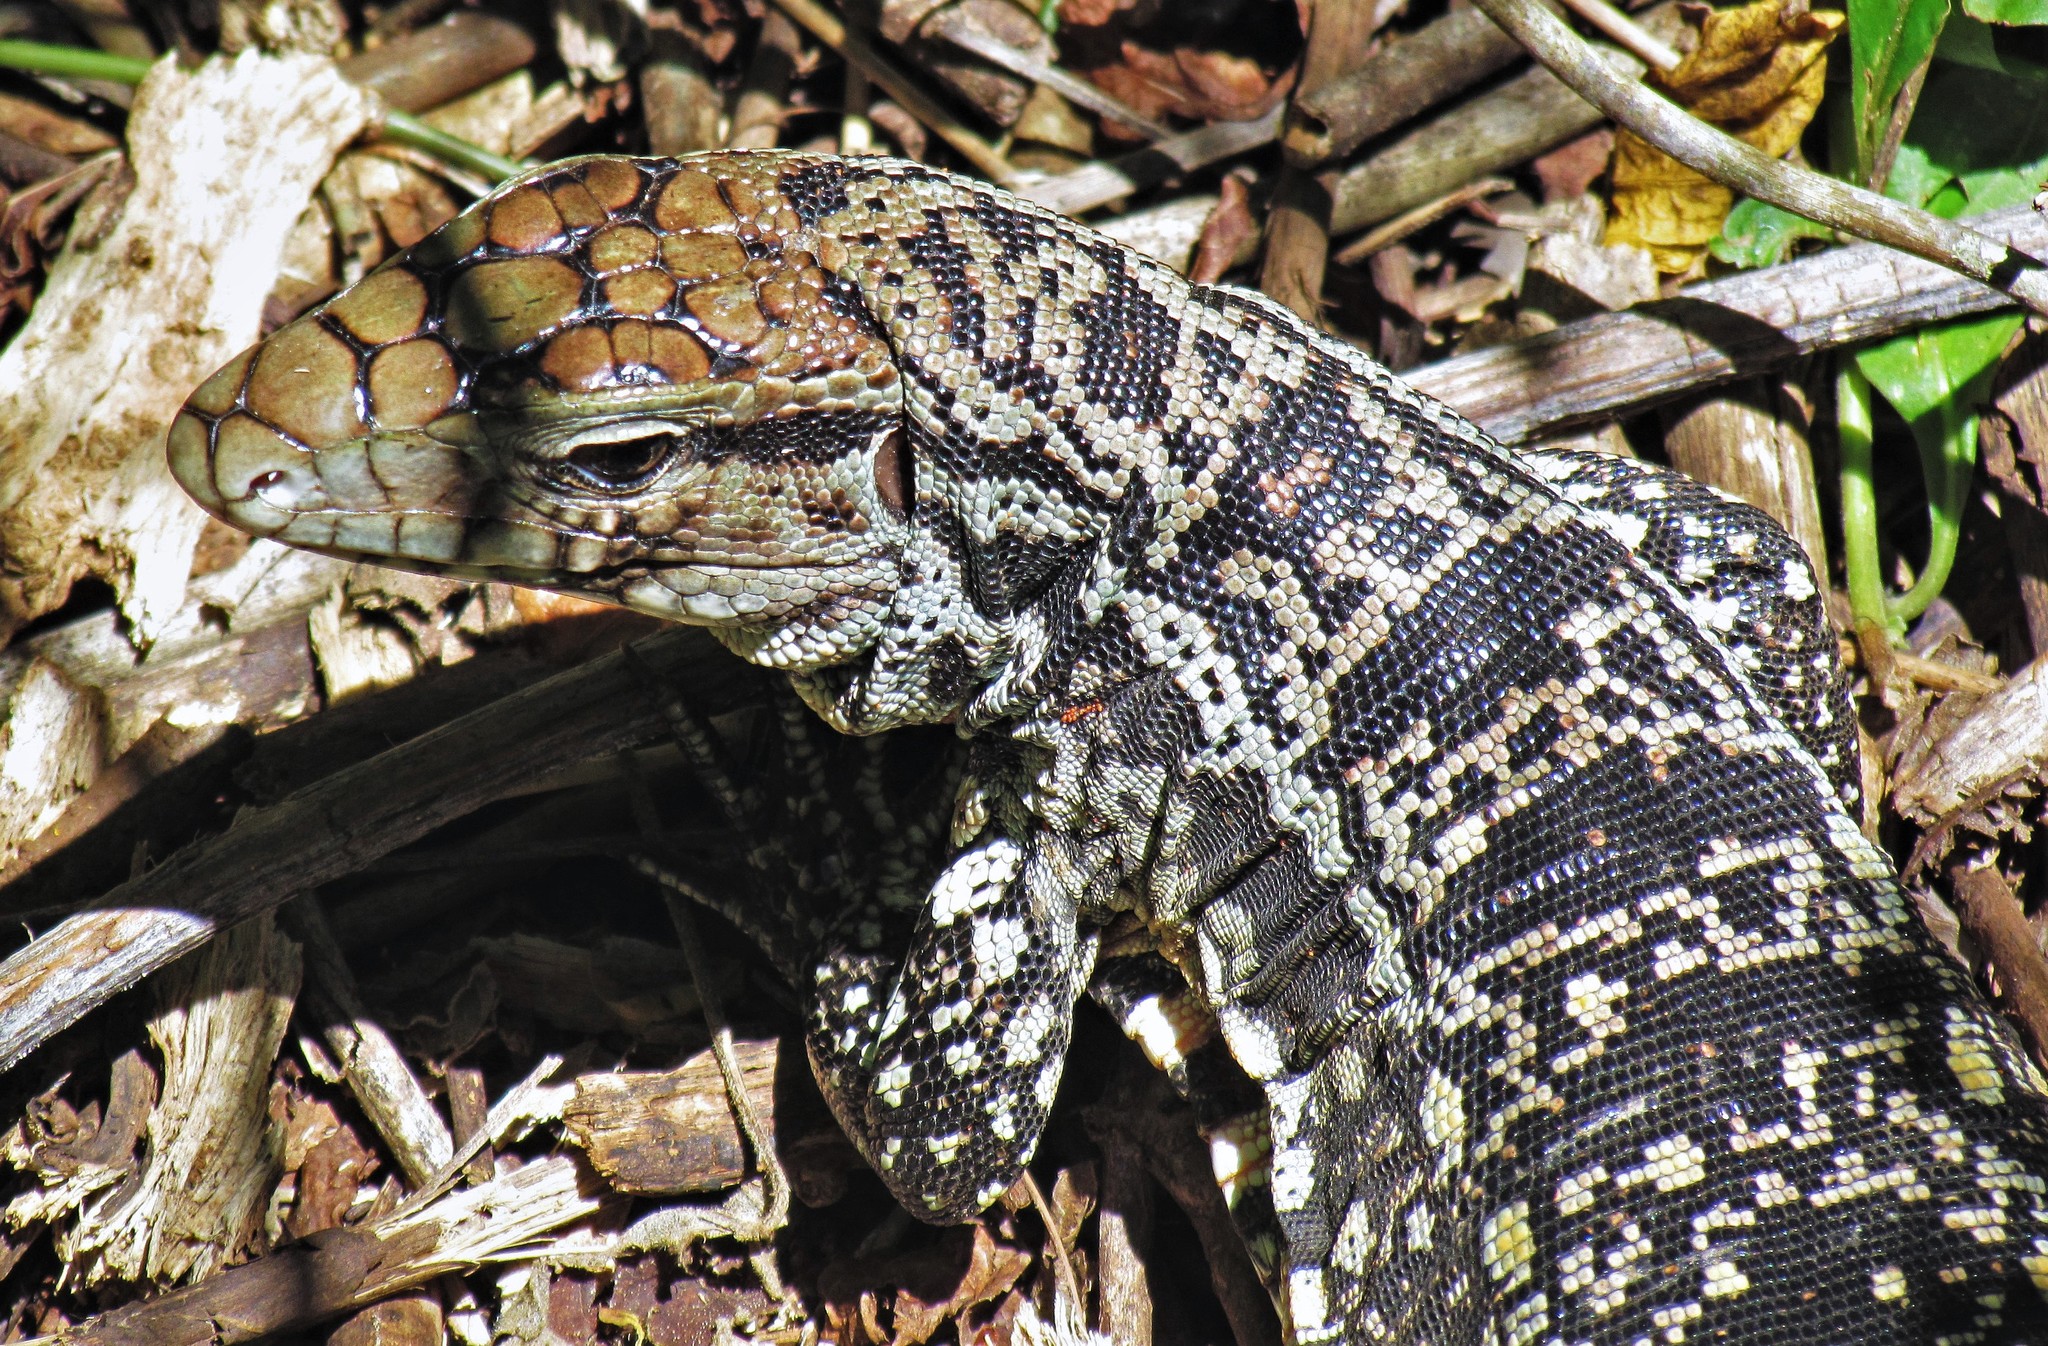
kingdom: Animalia
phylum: Chordata
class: Squamata
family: Teiidae
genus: Salvator
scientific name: Salvator merianae
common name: Argentine black and white tegu
